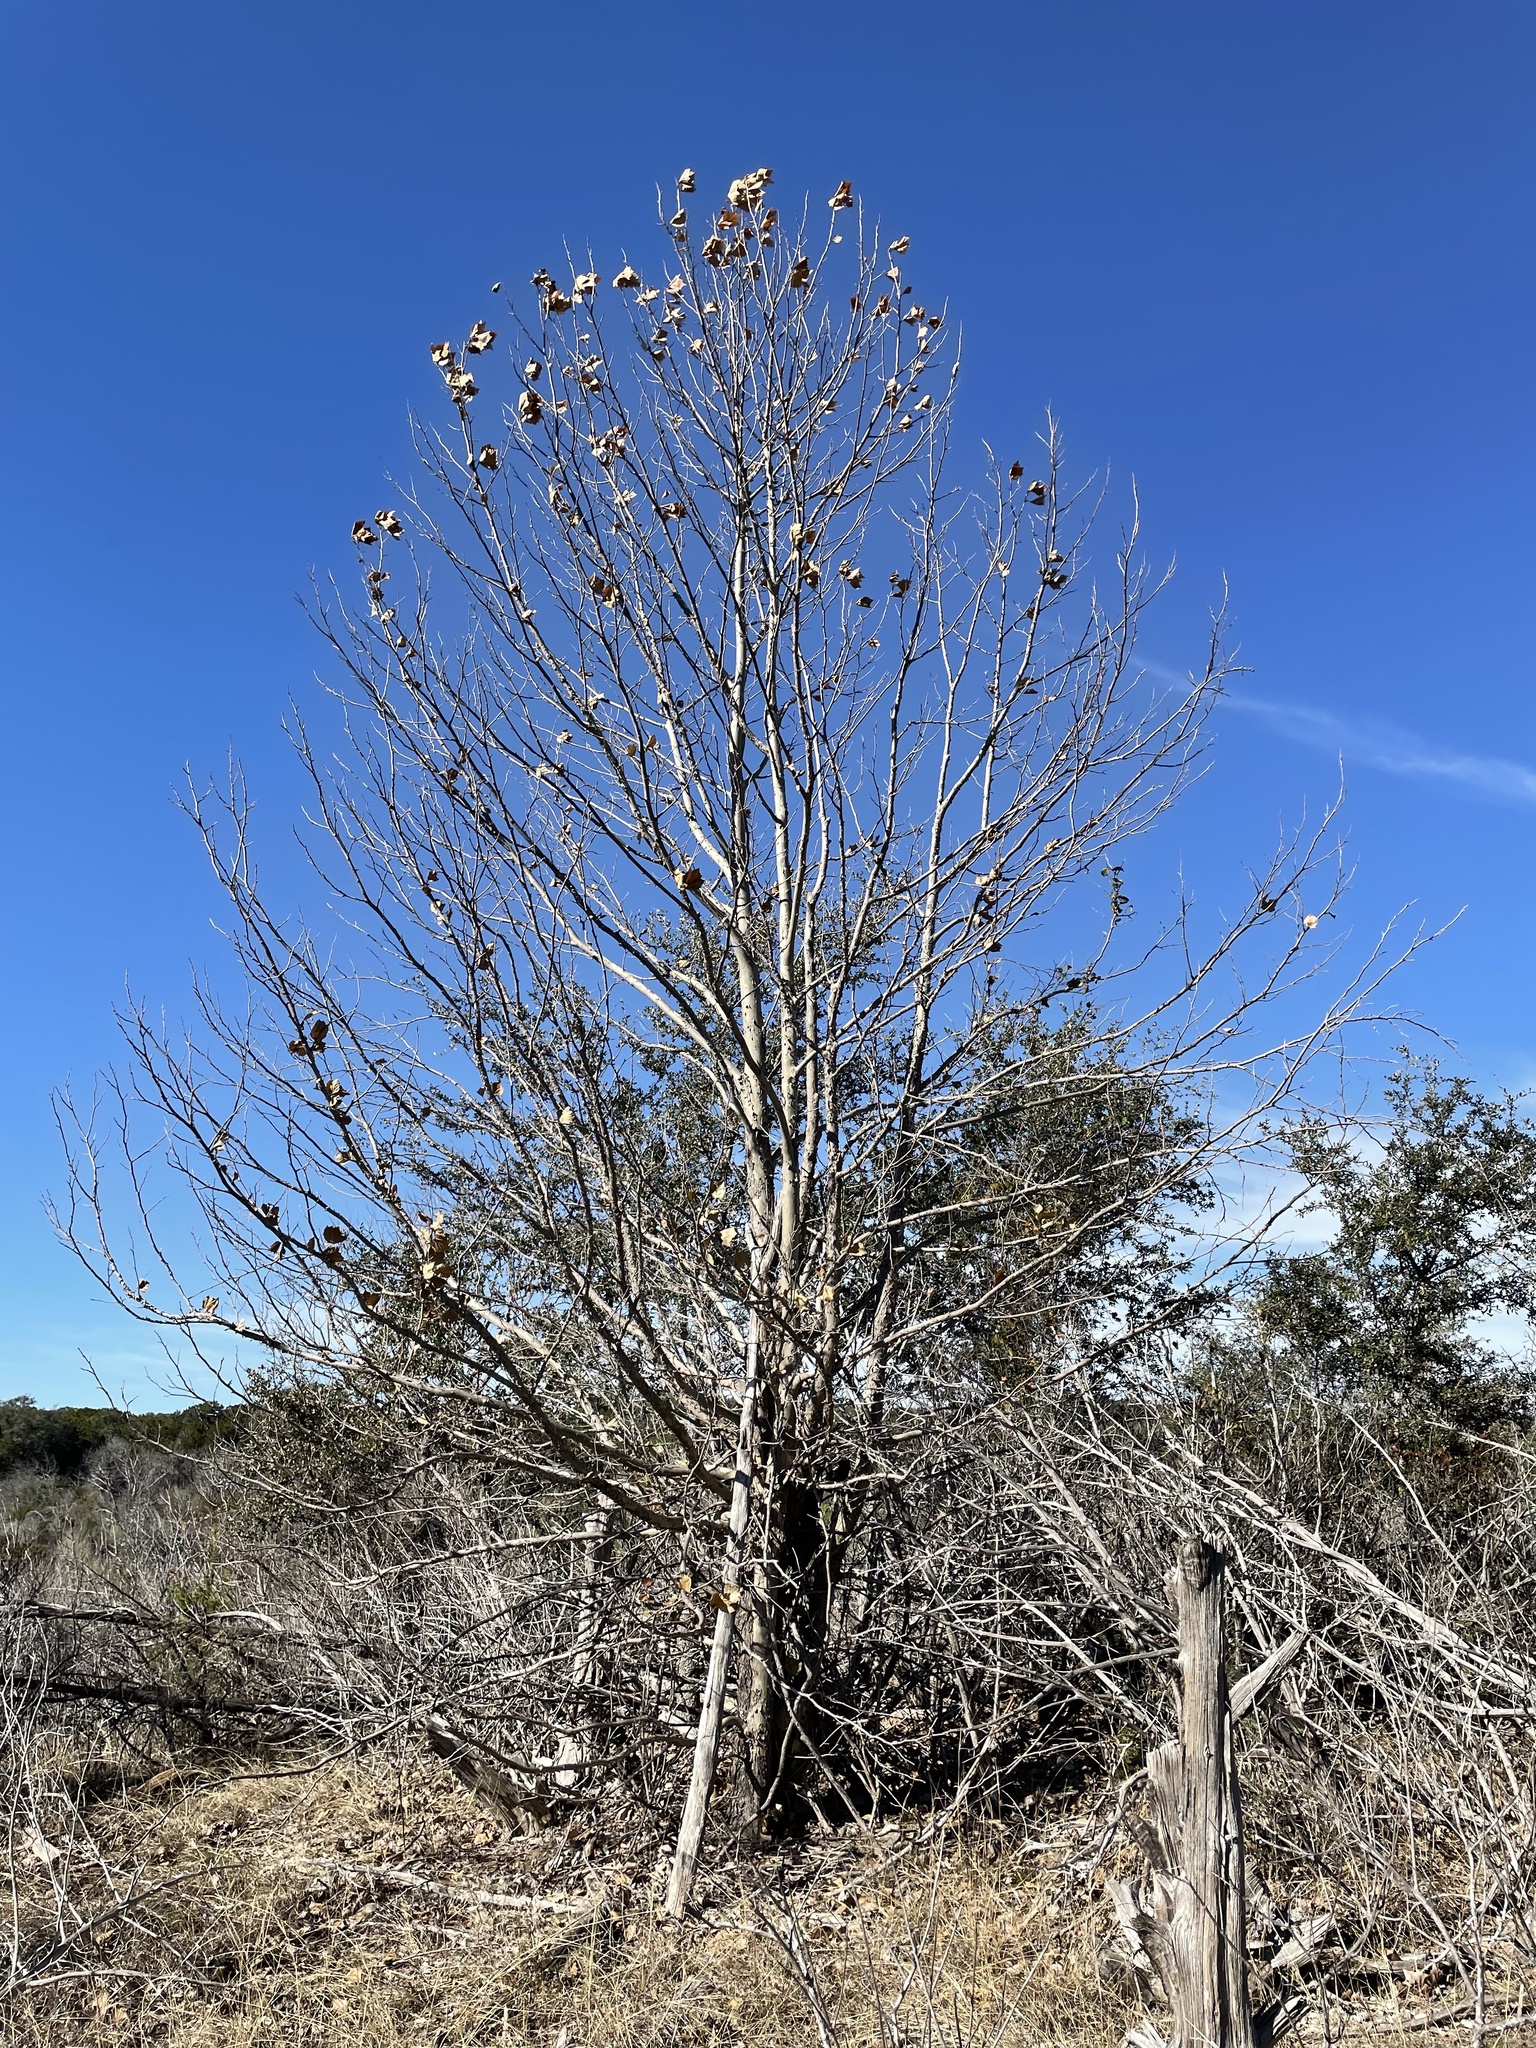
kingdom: Plantae
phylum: Tracheophyta
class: Magnoliopsida
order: Proteales
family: Platanaceae
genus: Platanus
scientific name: Platanus occidentalis
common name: American sycamore
